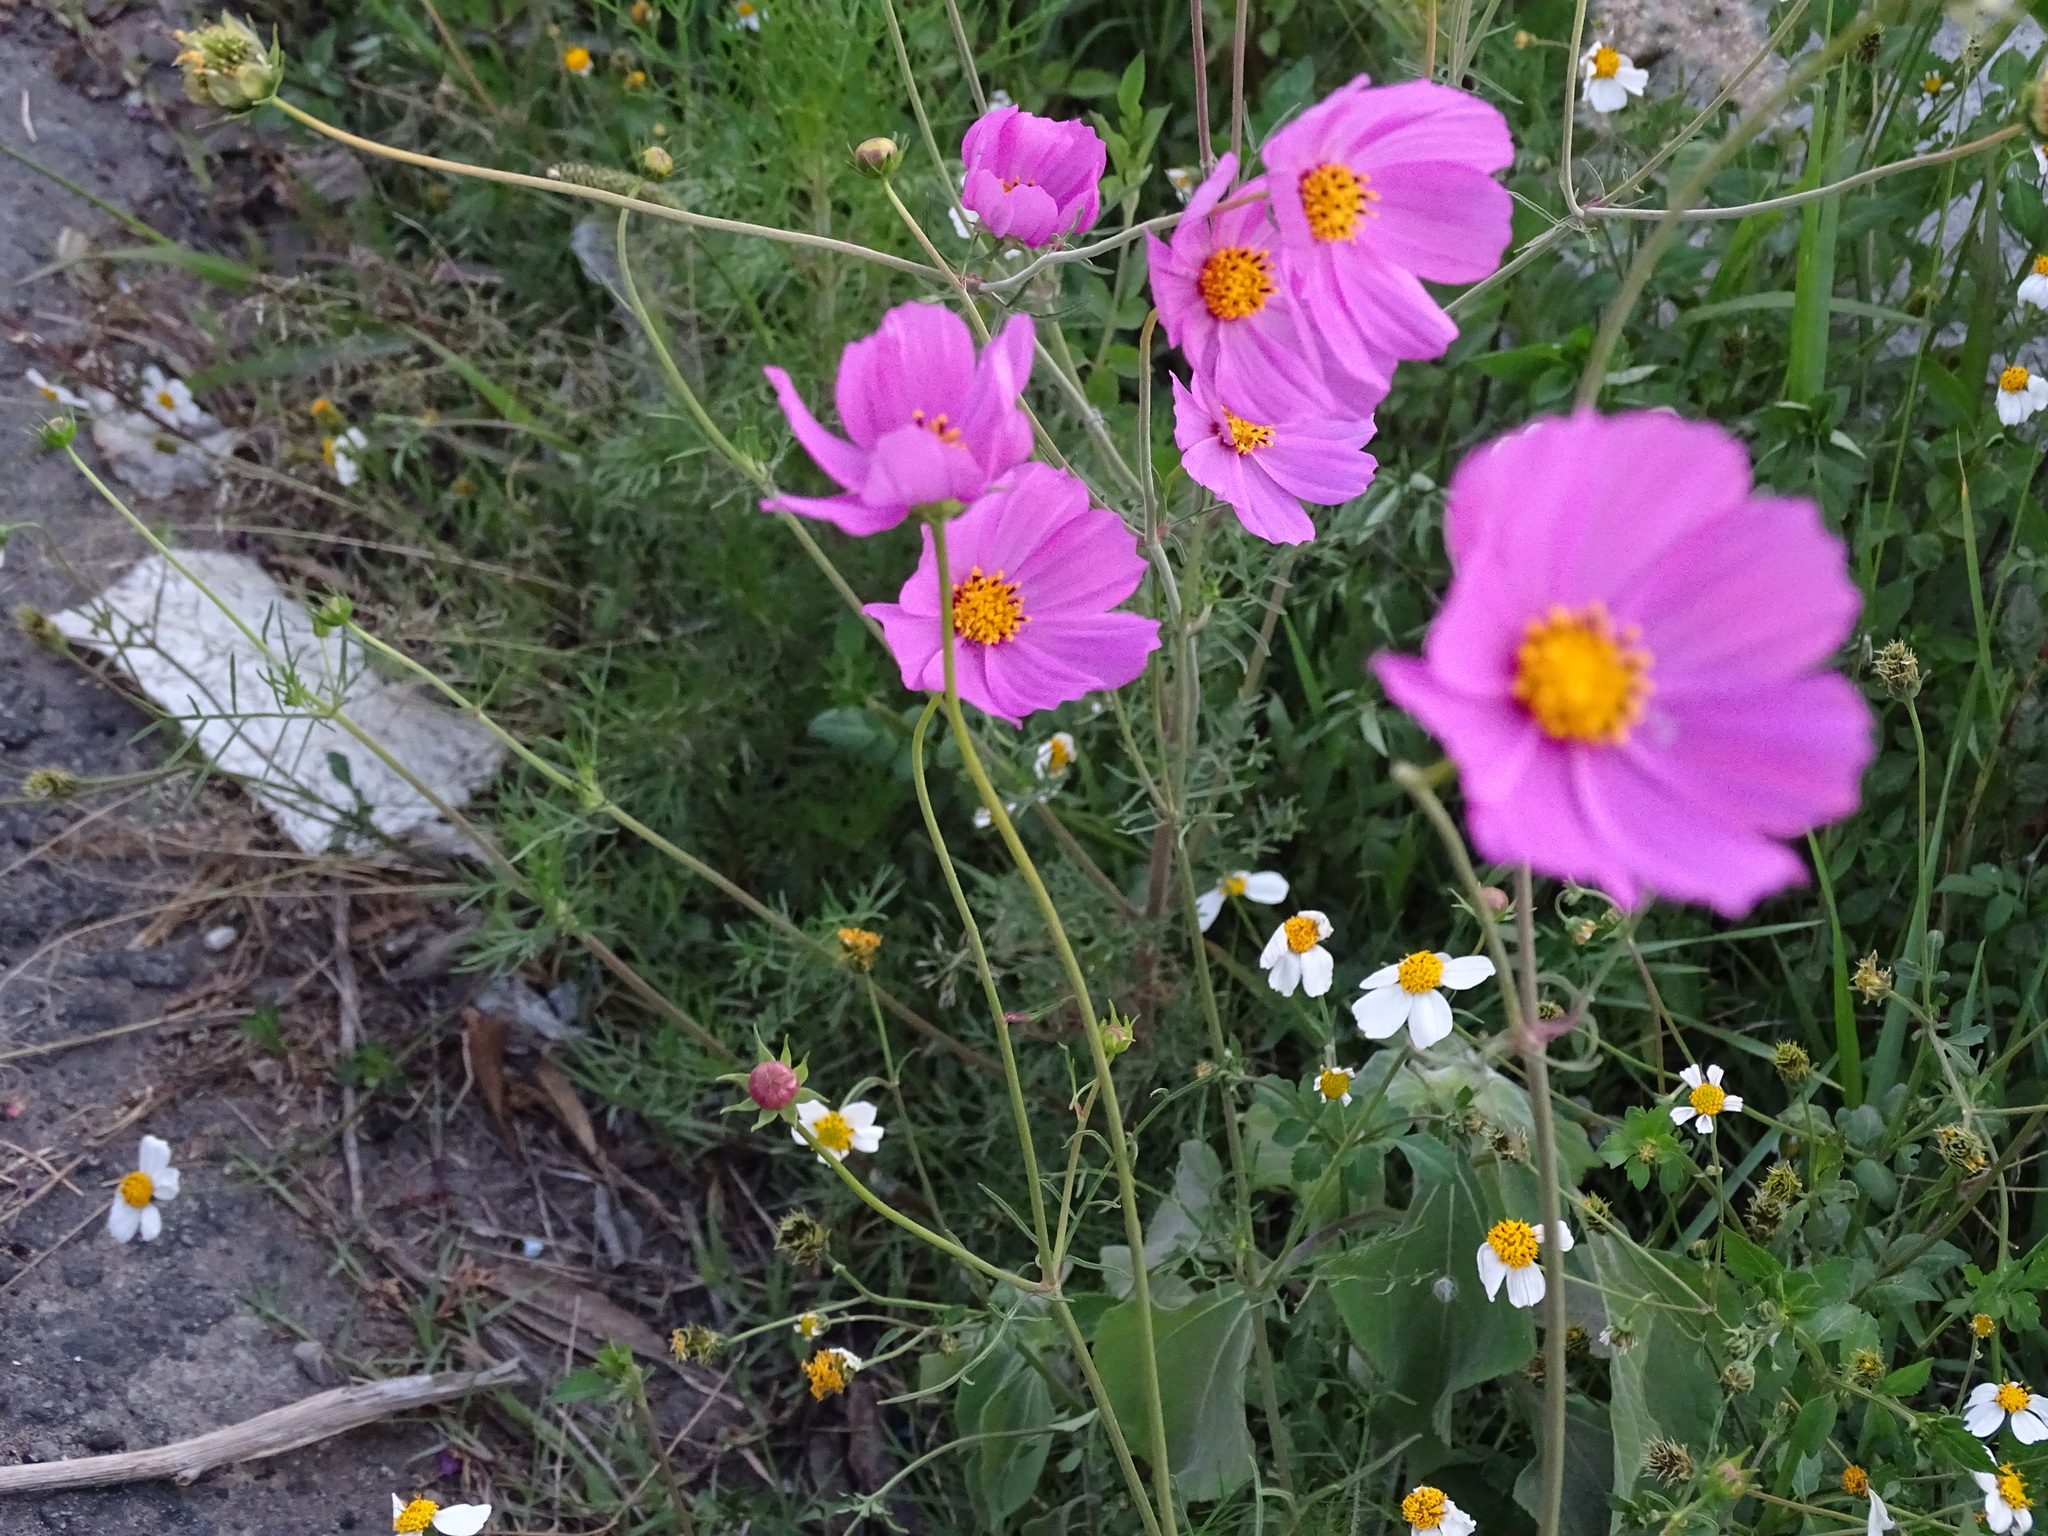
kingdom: Plantae
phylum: Tracheophyta
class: Magnoliopsida
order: Asterales
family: Asteraceae
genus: Cosmos
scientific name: Cosmos bipinnatus
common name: Garden cosmos
